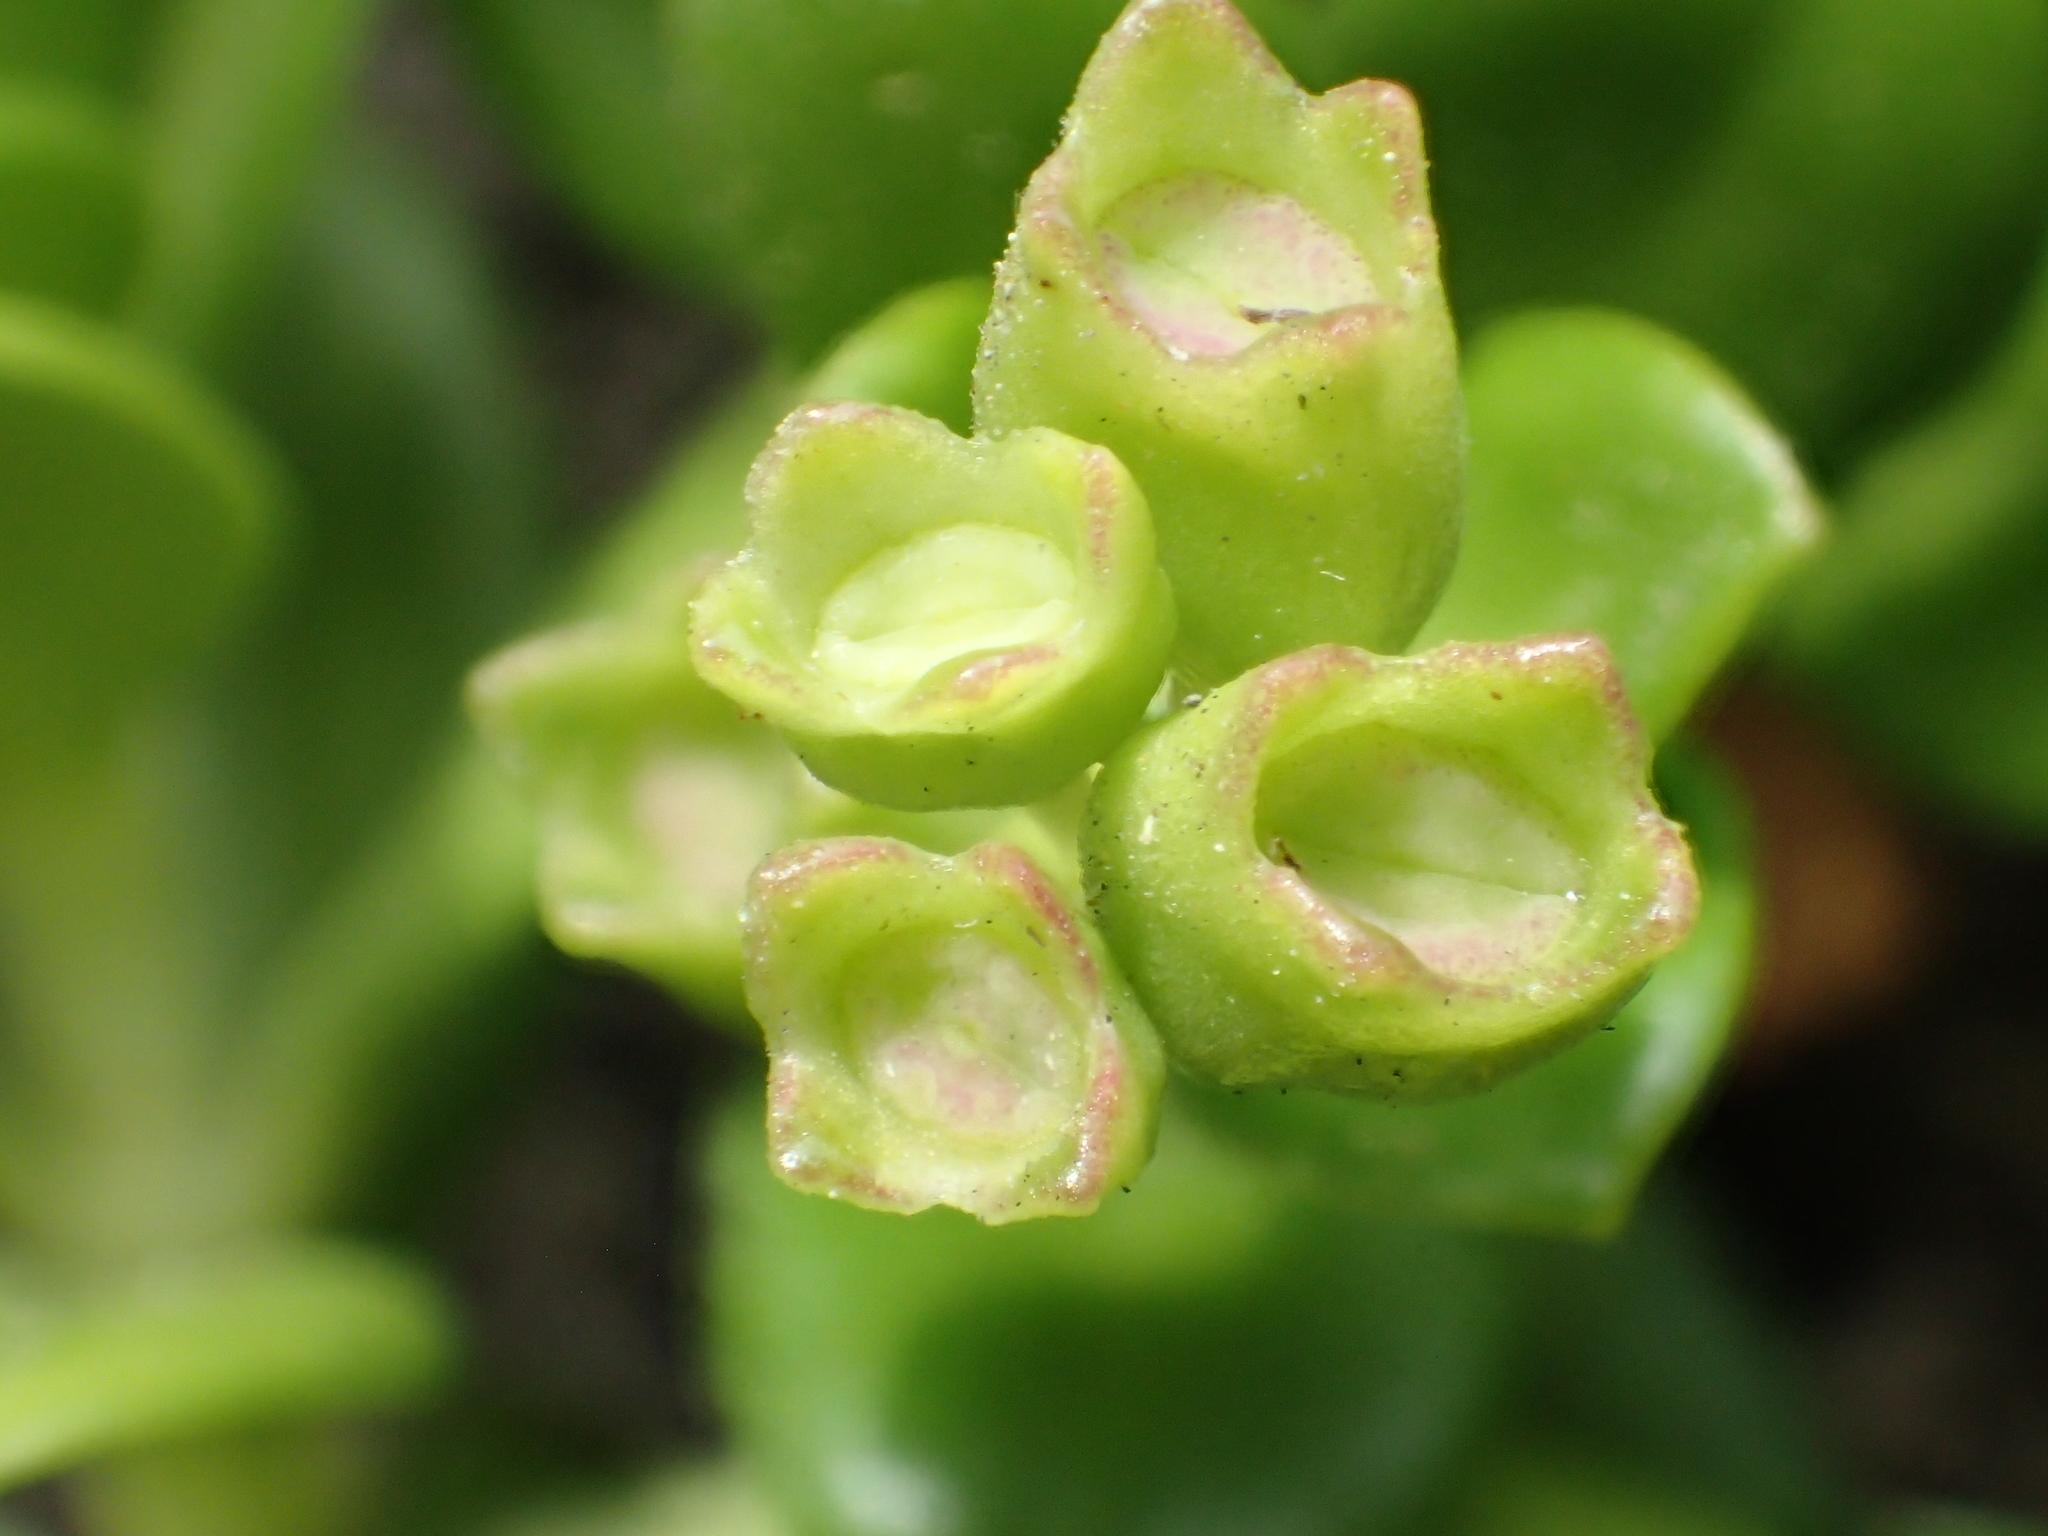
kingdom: Plantae
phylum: Tracheophyta
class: Magnoliopsida
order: Gentianales
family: Rubiaceae
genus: Leptopetalum
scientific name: Leptopetalum strigulosum
